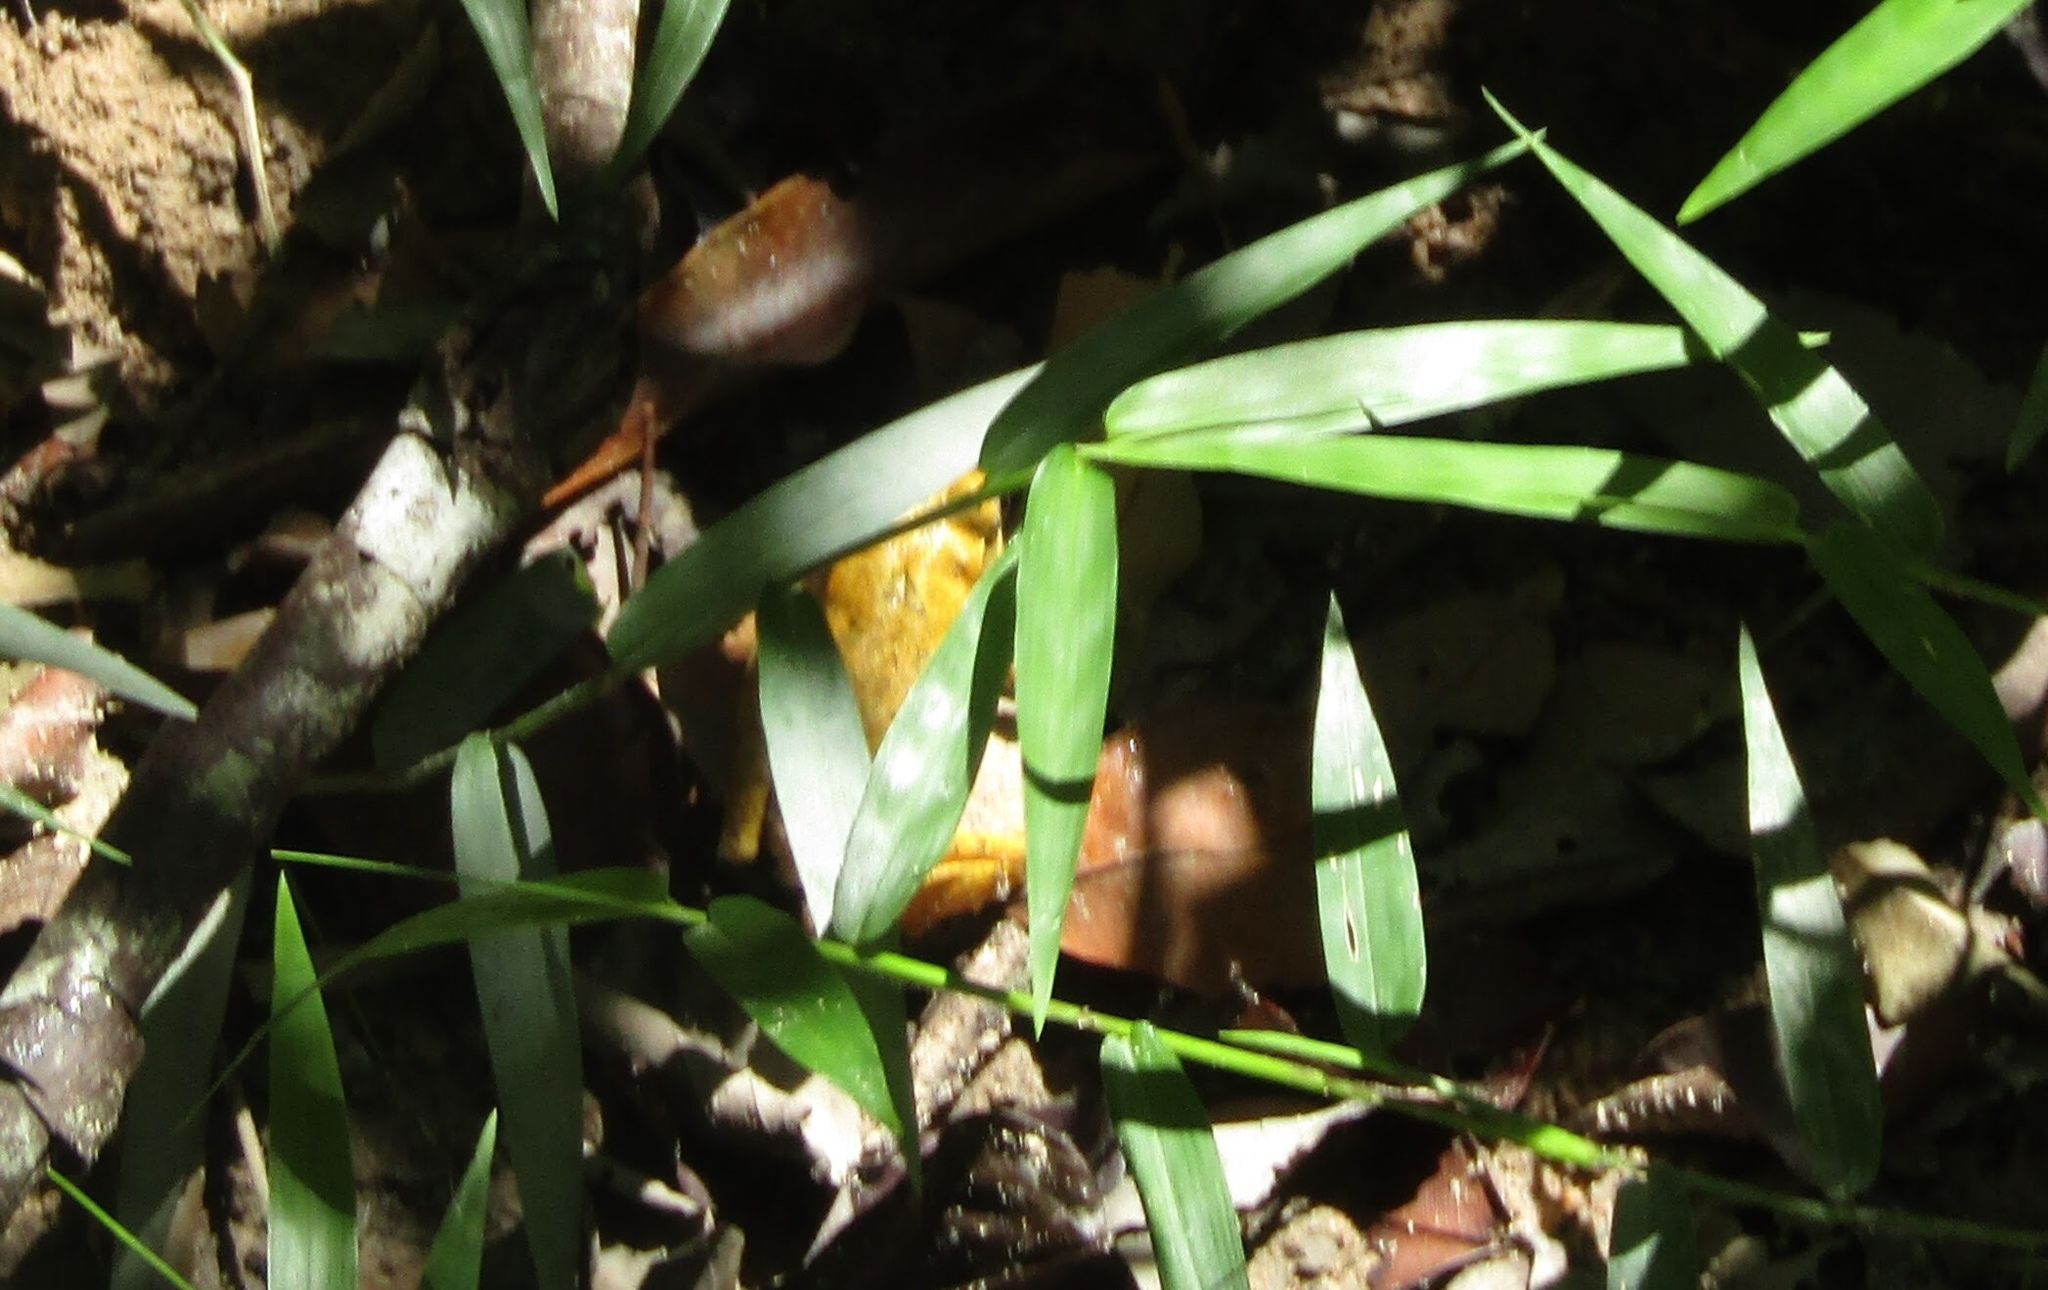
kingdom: Animalia
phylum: Chordata
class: Amphibia
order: Anura
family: Rhacophoridae
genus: Polypedates
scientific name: Polypedates megacephalus
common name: Hong kong whipping frog
